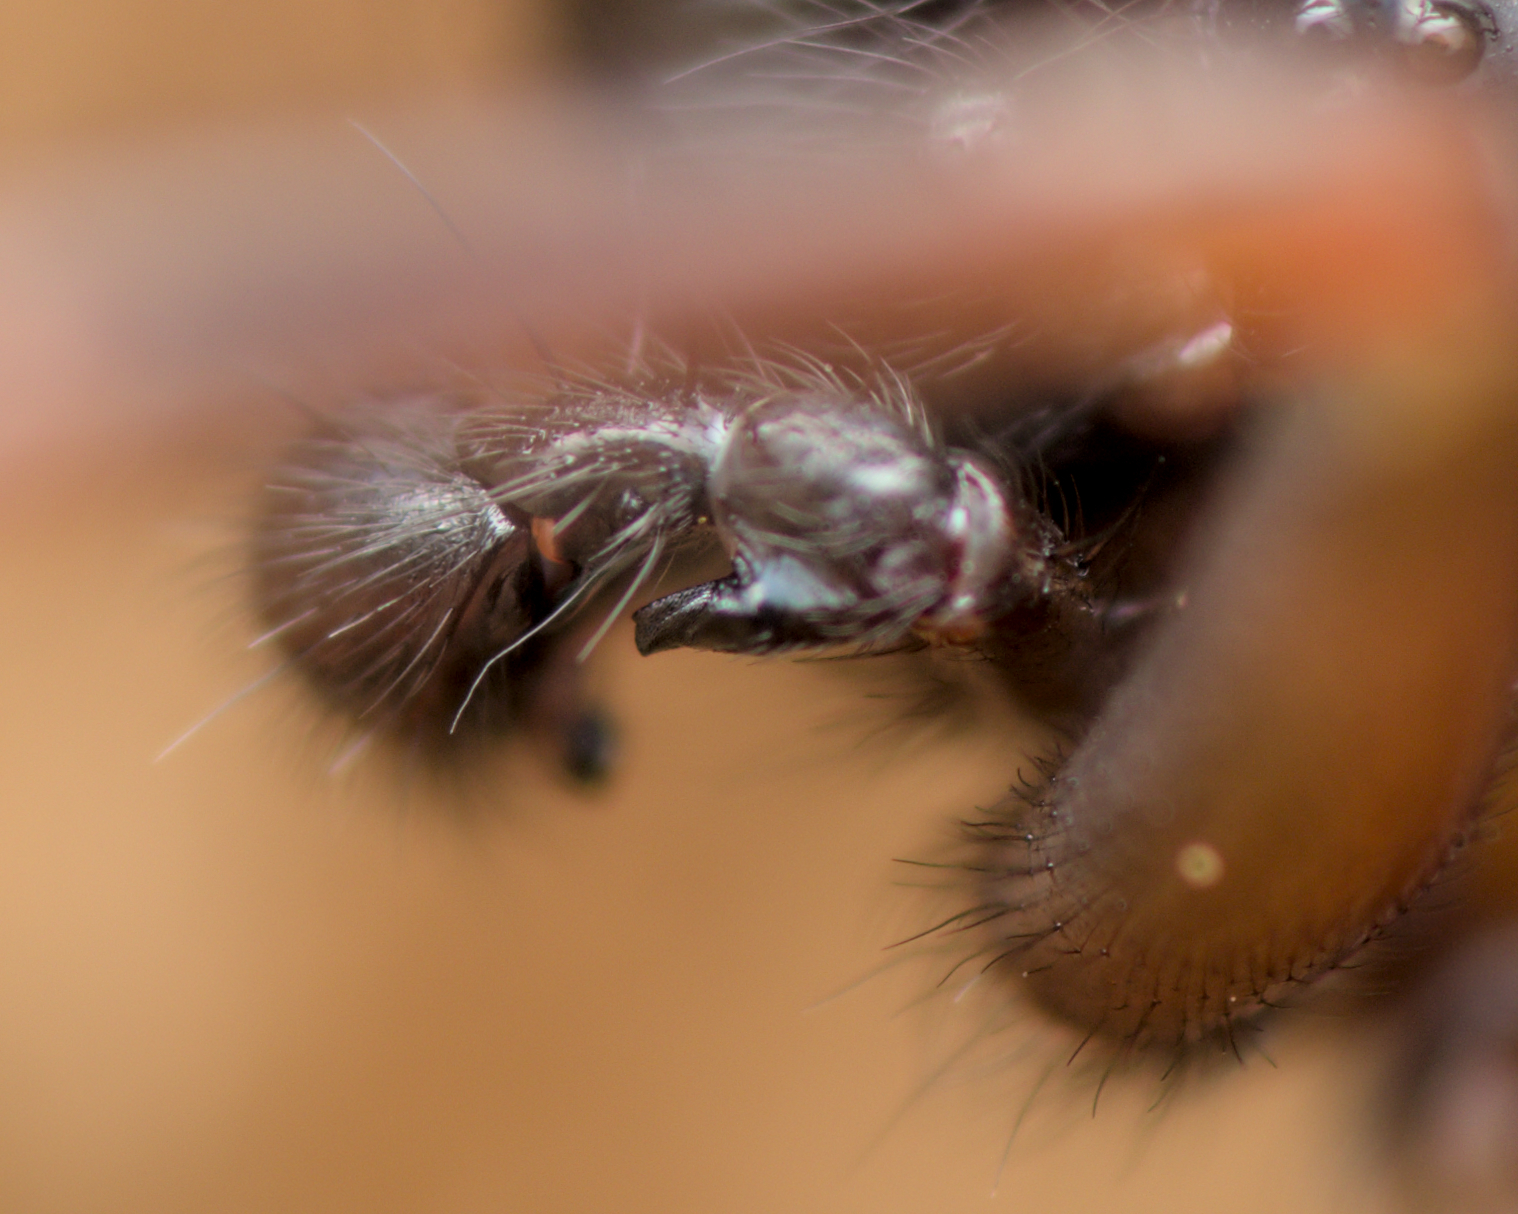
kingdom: Animalia
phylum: Arthropoda
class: Arachnida
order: Araneae
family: Agelenidae
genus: Coelotes
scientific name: Coelotes atropos
